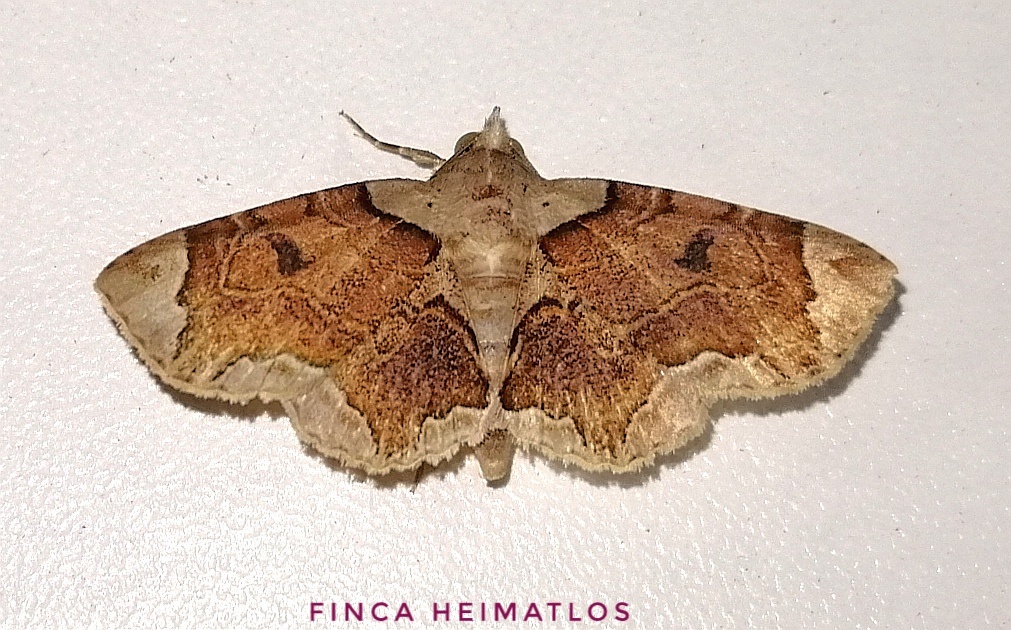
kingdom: Animalia
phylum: Arthropoda
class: Insecta
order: Lepidoptera
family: Erebidae
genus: Dolichosomastis
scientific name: Dolichosomastis bicolorata
